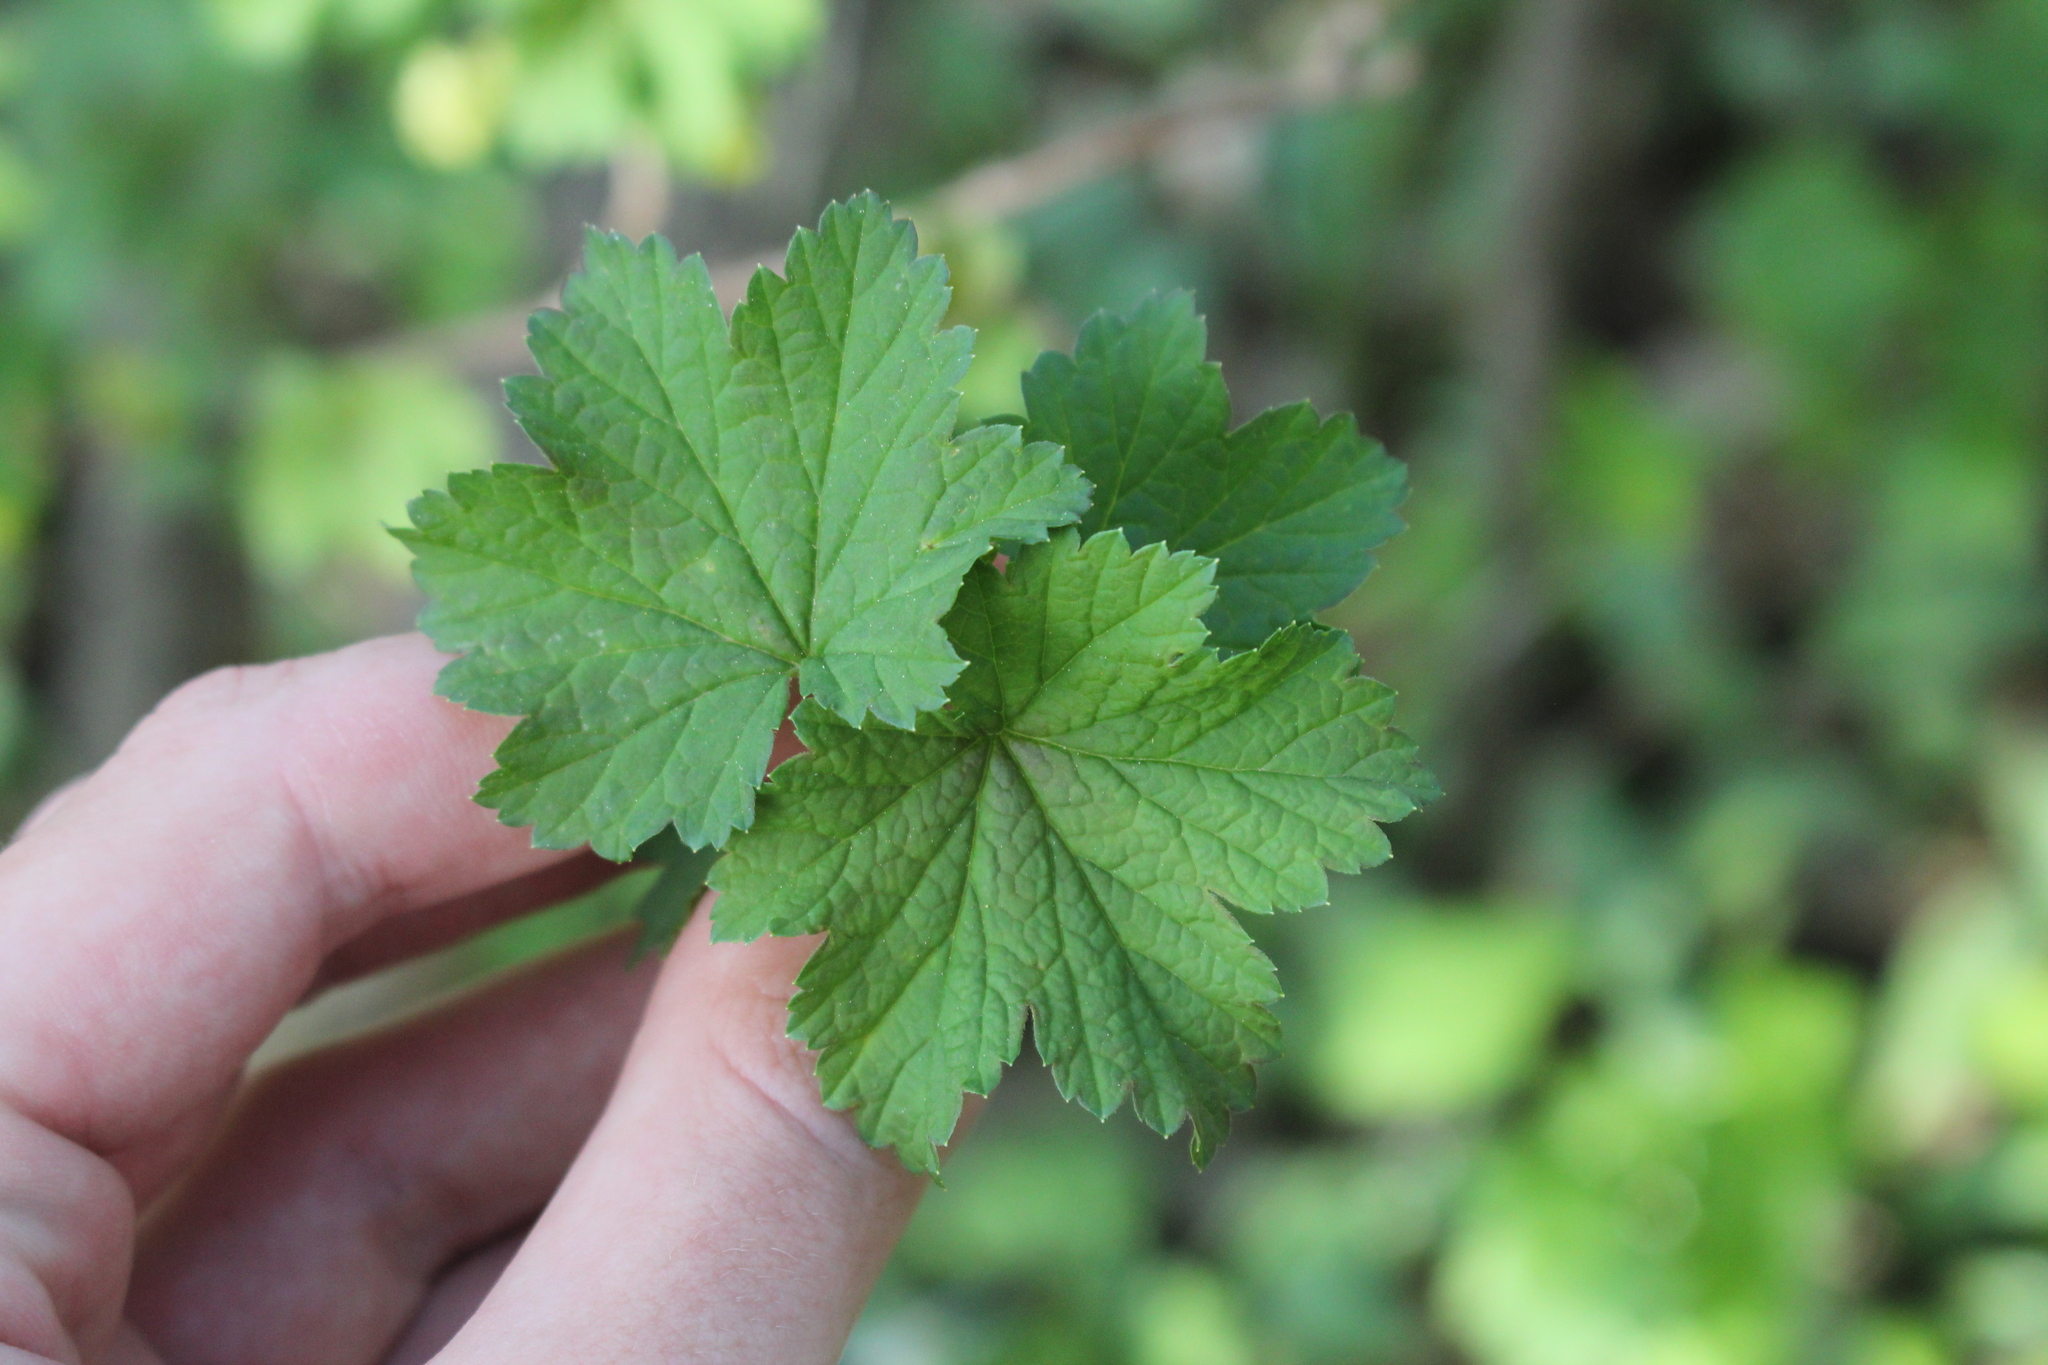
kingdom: Plantae
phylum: Tracheophyta
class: Magnoliopsida
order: Saxifragales
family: Grossulariaceae
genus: Ribes
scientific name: Ribes rubrum
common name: Red currant
